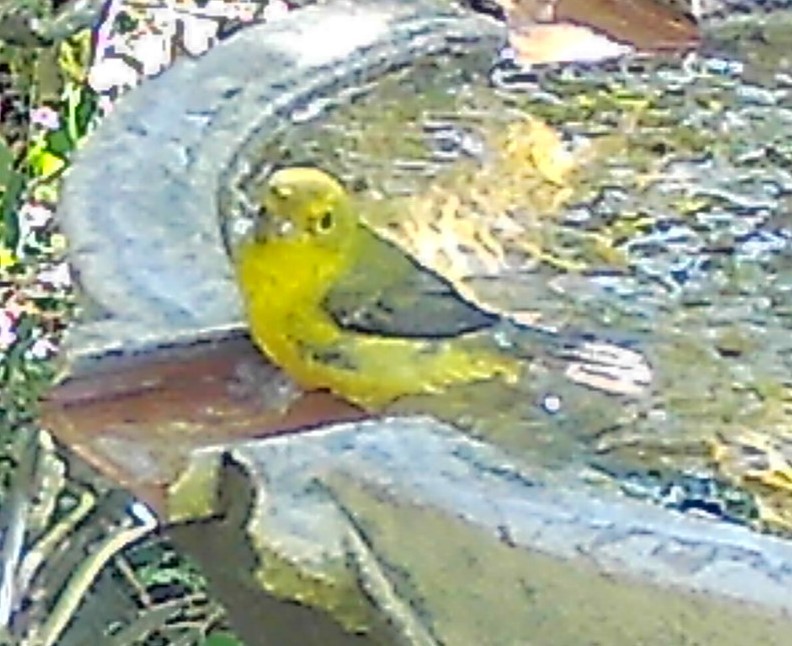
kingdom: Animalia
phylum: Chordata
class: Aves
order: Passeriformes
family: Parulidae
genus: Cardellina
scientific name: Cardellina pusilla
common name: Wilson's warbler
